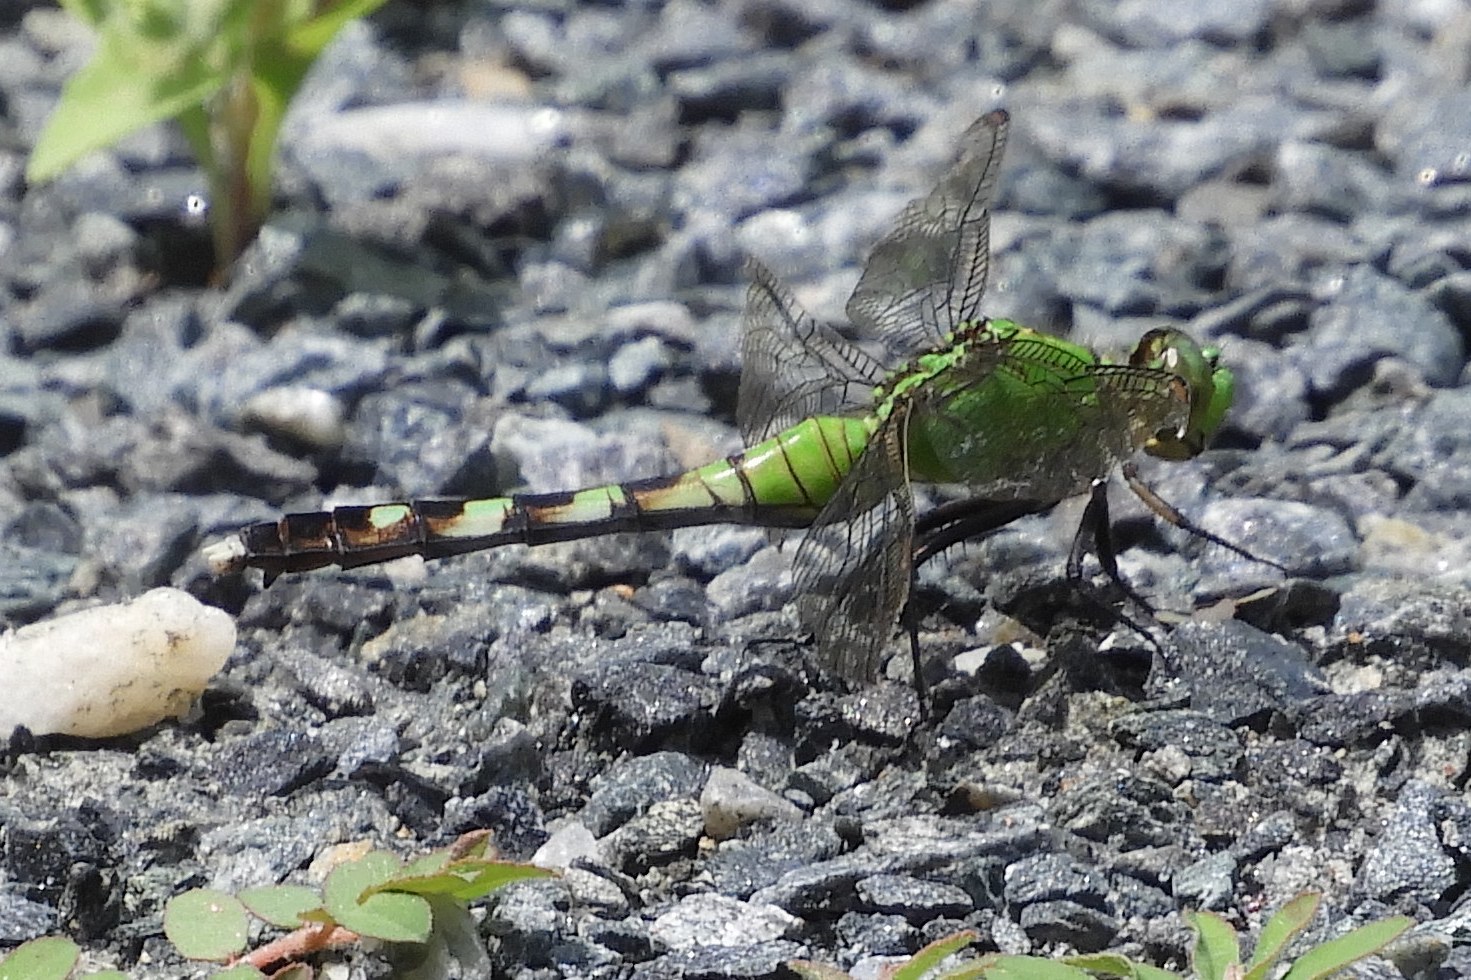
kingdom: Animalia
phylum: Arthropoda
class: Insecta
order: Odonata
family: Libellulidae
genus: Erythemis
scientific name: Erythemis simplicicollis
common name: Eastern pondhawk
